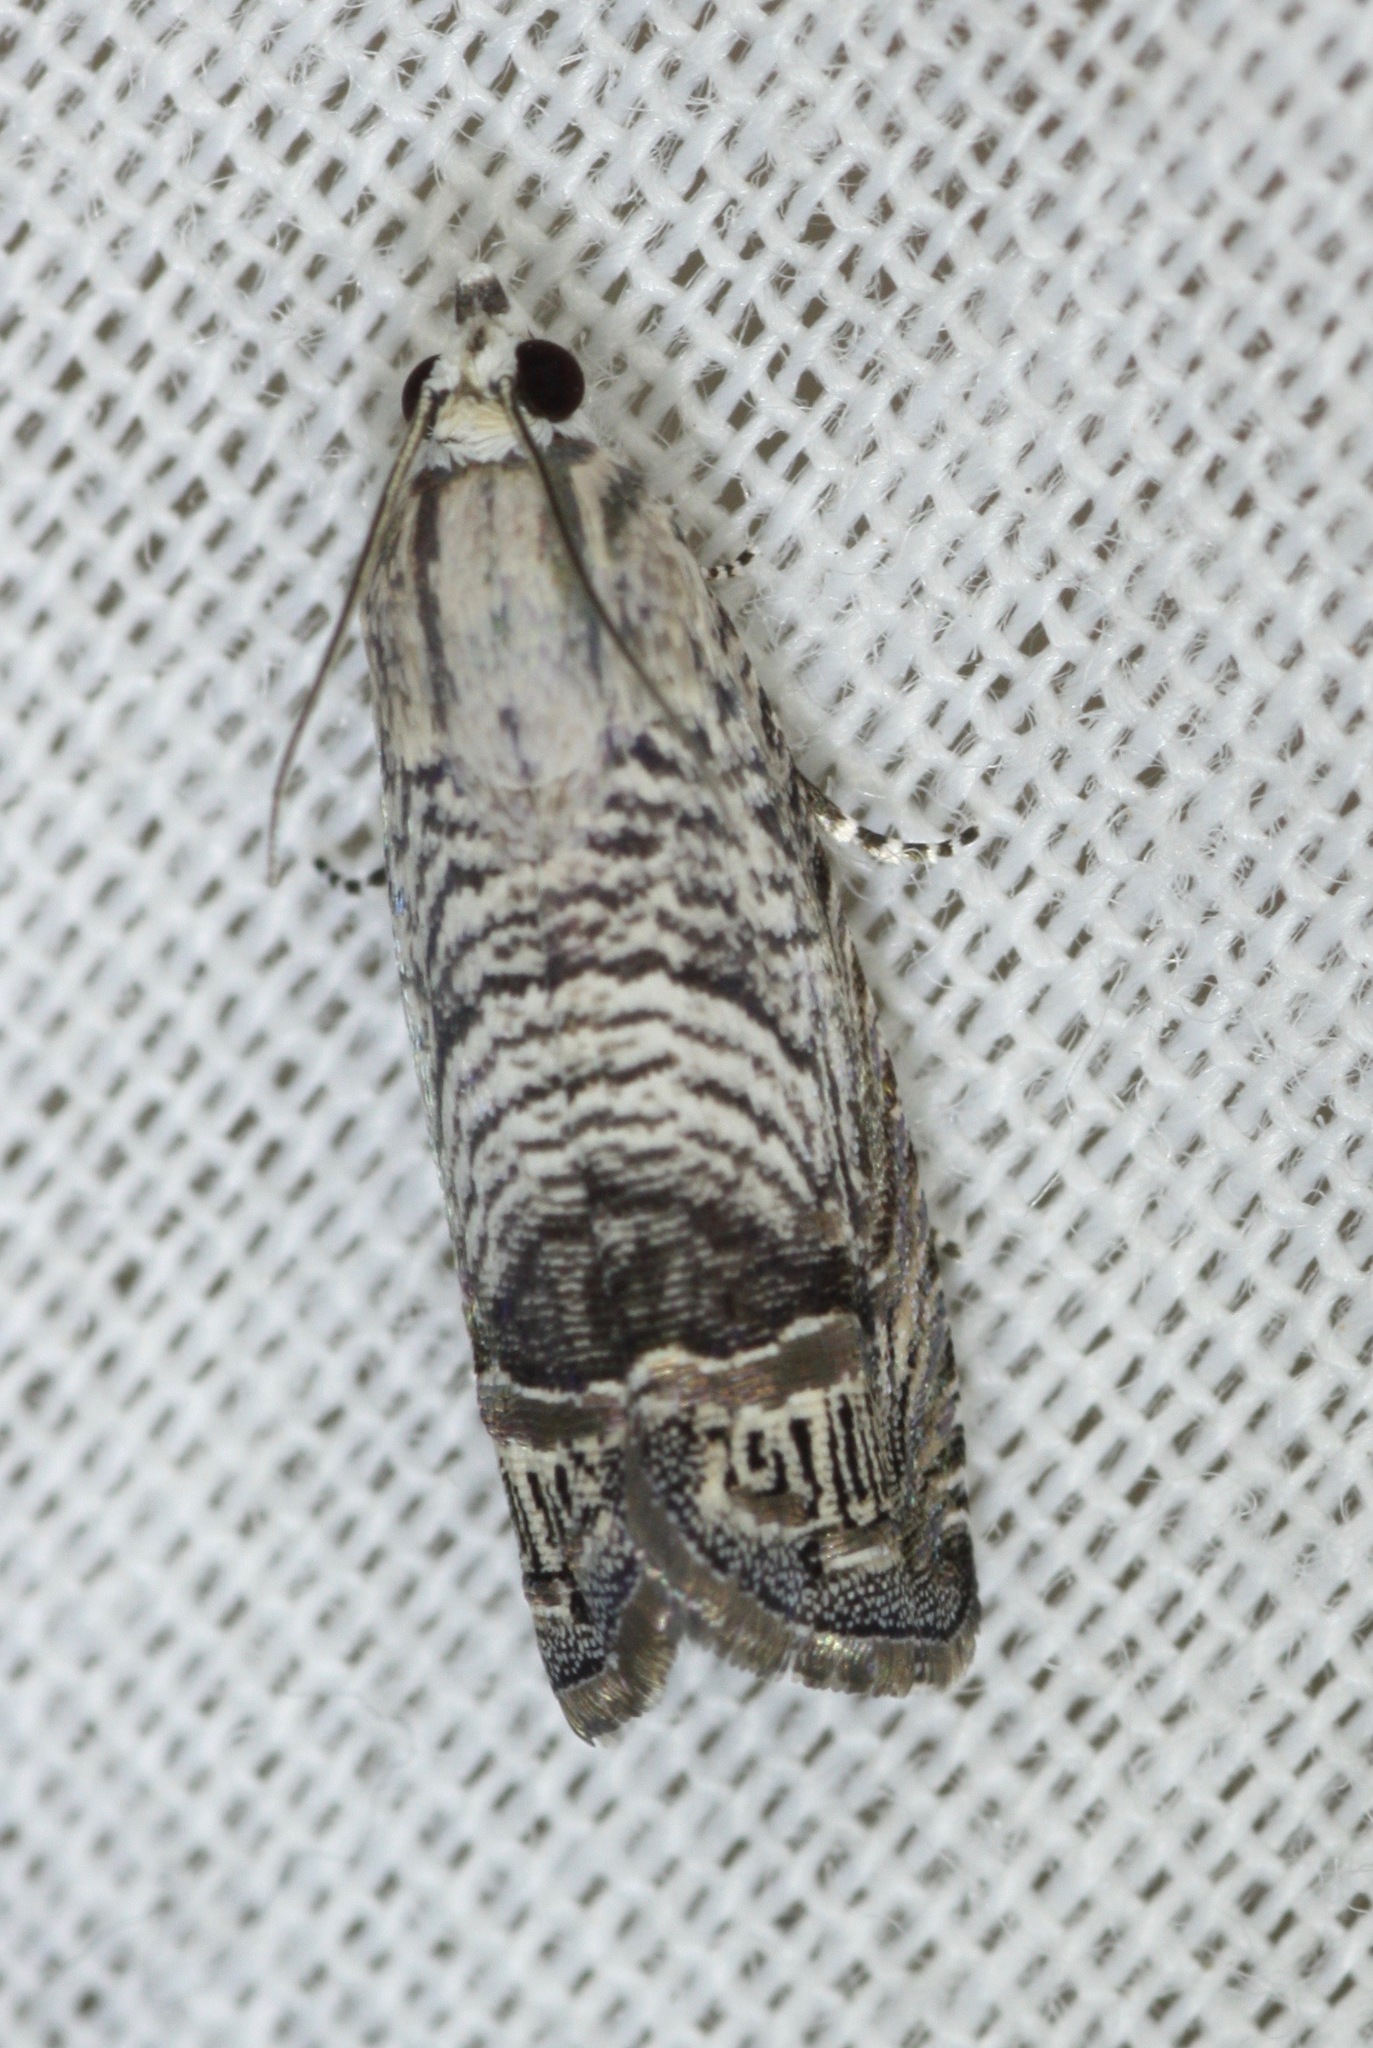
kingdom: Animalia
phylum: Arthropoda
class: Insecta
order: Lepidoptera
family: Tortricidae
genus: Ofatulena
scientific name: Ofatulena duodecemstriata
